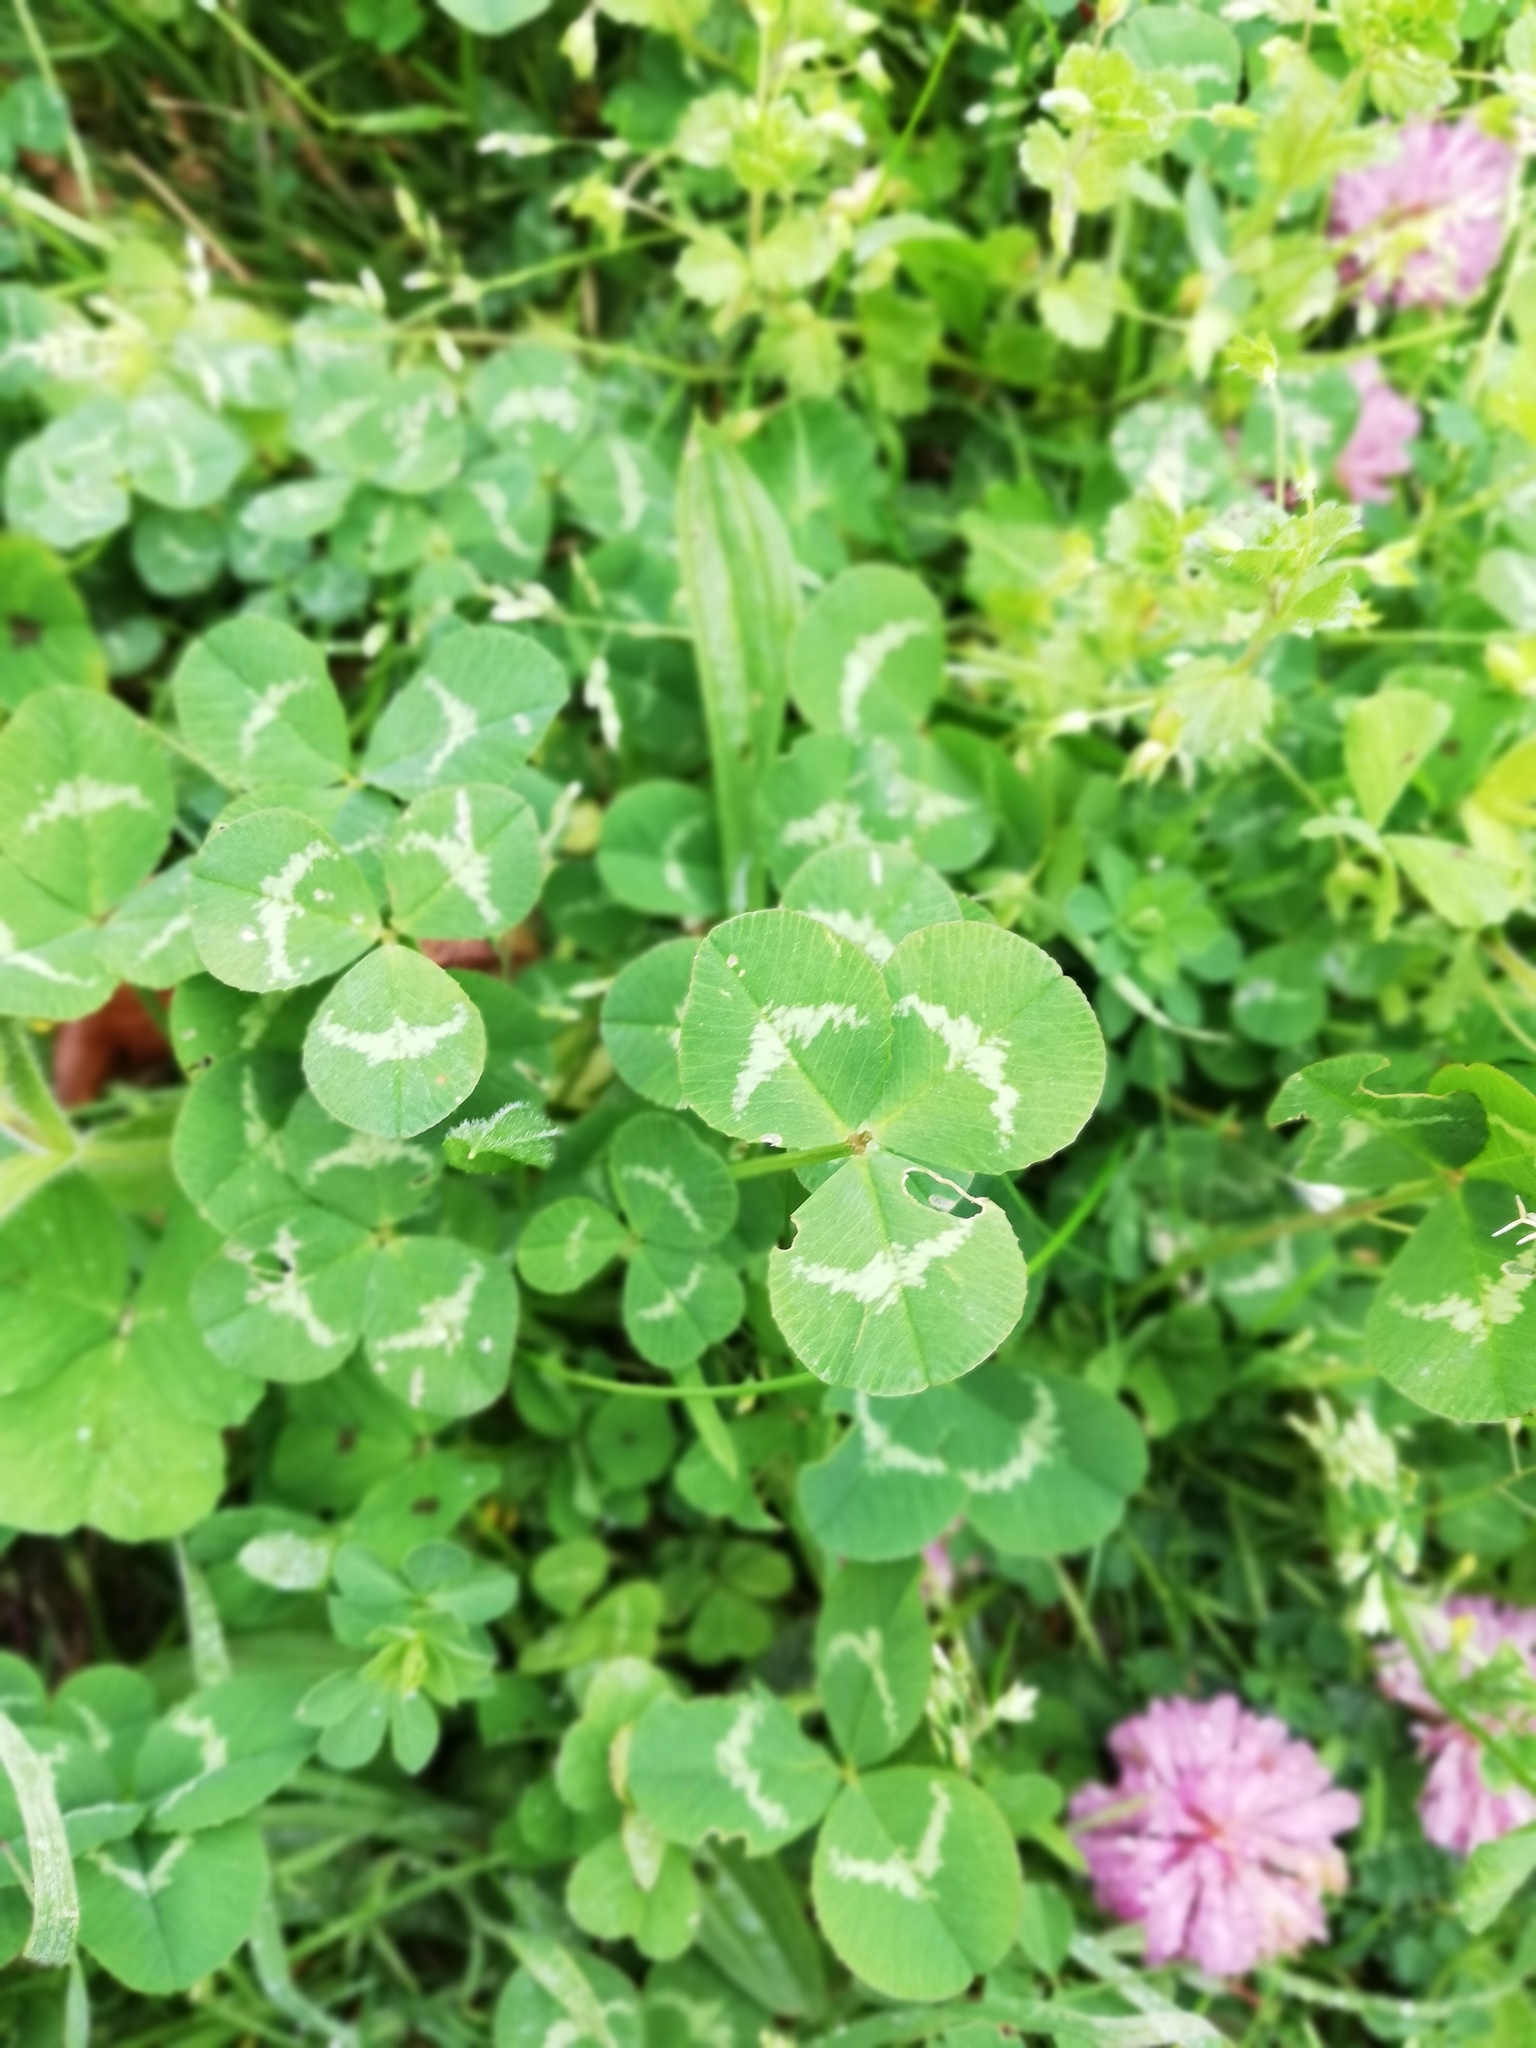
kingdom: Plantae
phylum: Tracheophyta
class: Magnoliopsida
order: Fabales
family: Fabaceae
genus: Trifolium
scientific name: Trifolium pratense
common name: Red clover
